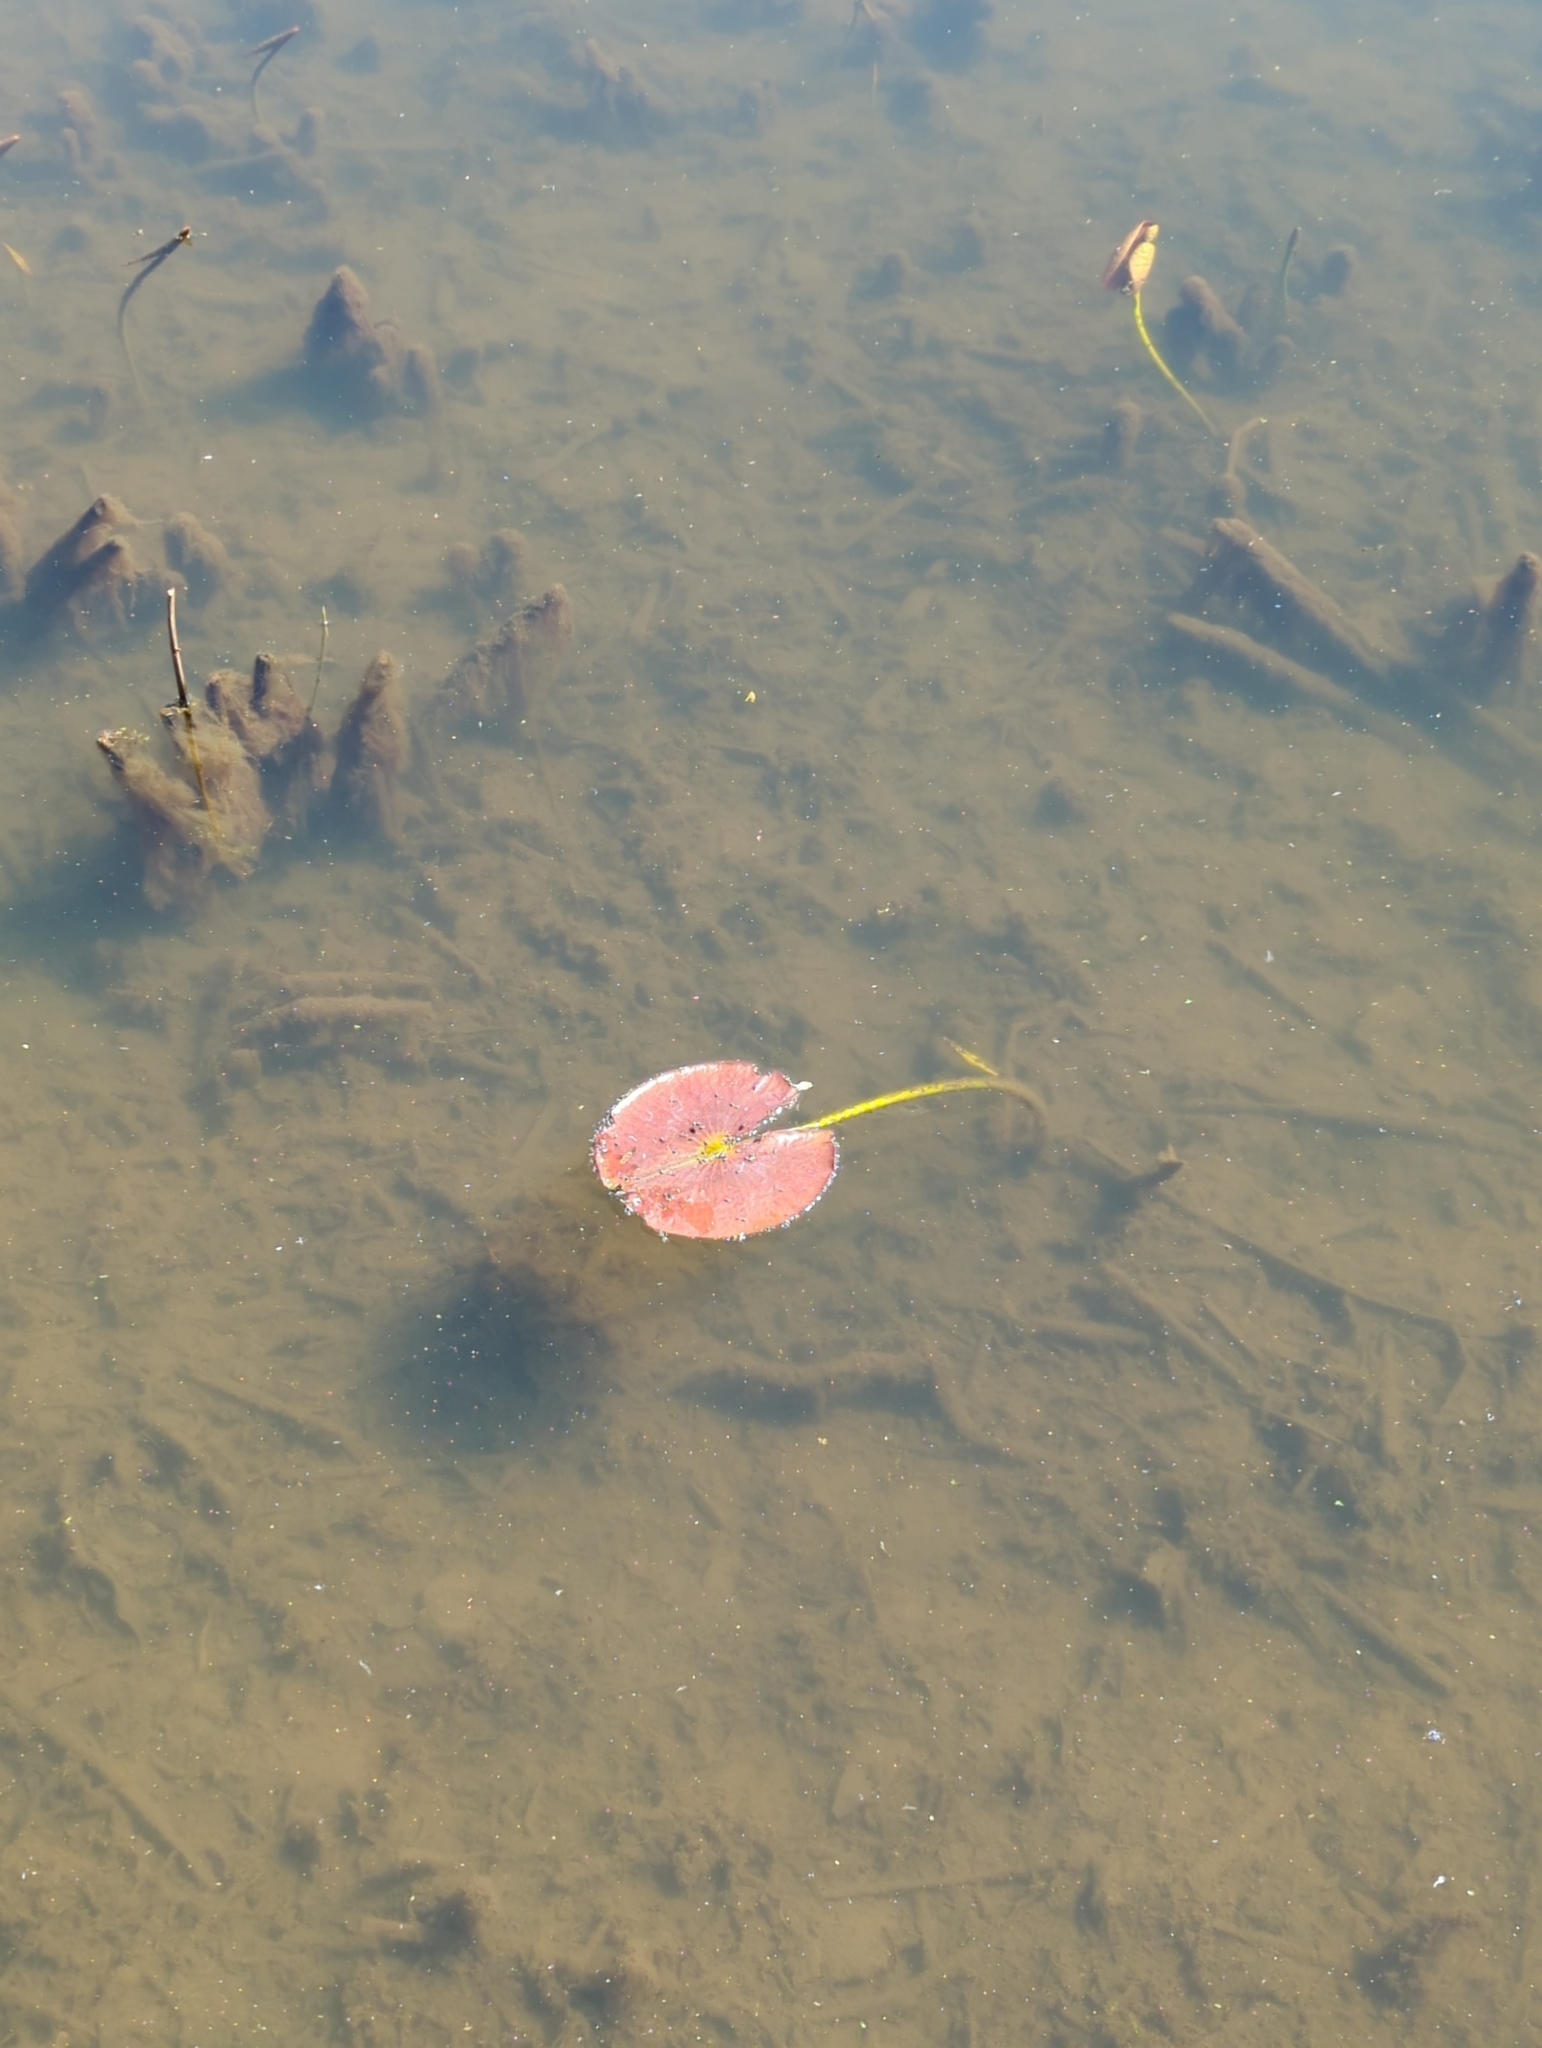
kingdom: Plantae
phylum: Tracheophyta
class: Magnoliopsida
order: Nymphaeales
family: Nymphaeaceae
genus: Nymphaea
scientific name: Nymphaea odorata
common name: Fragrant water-lily
